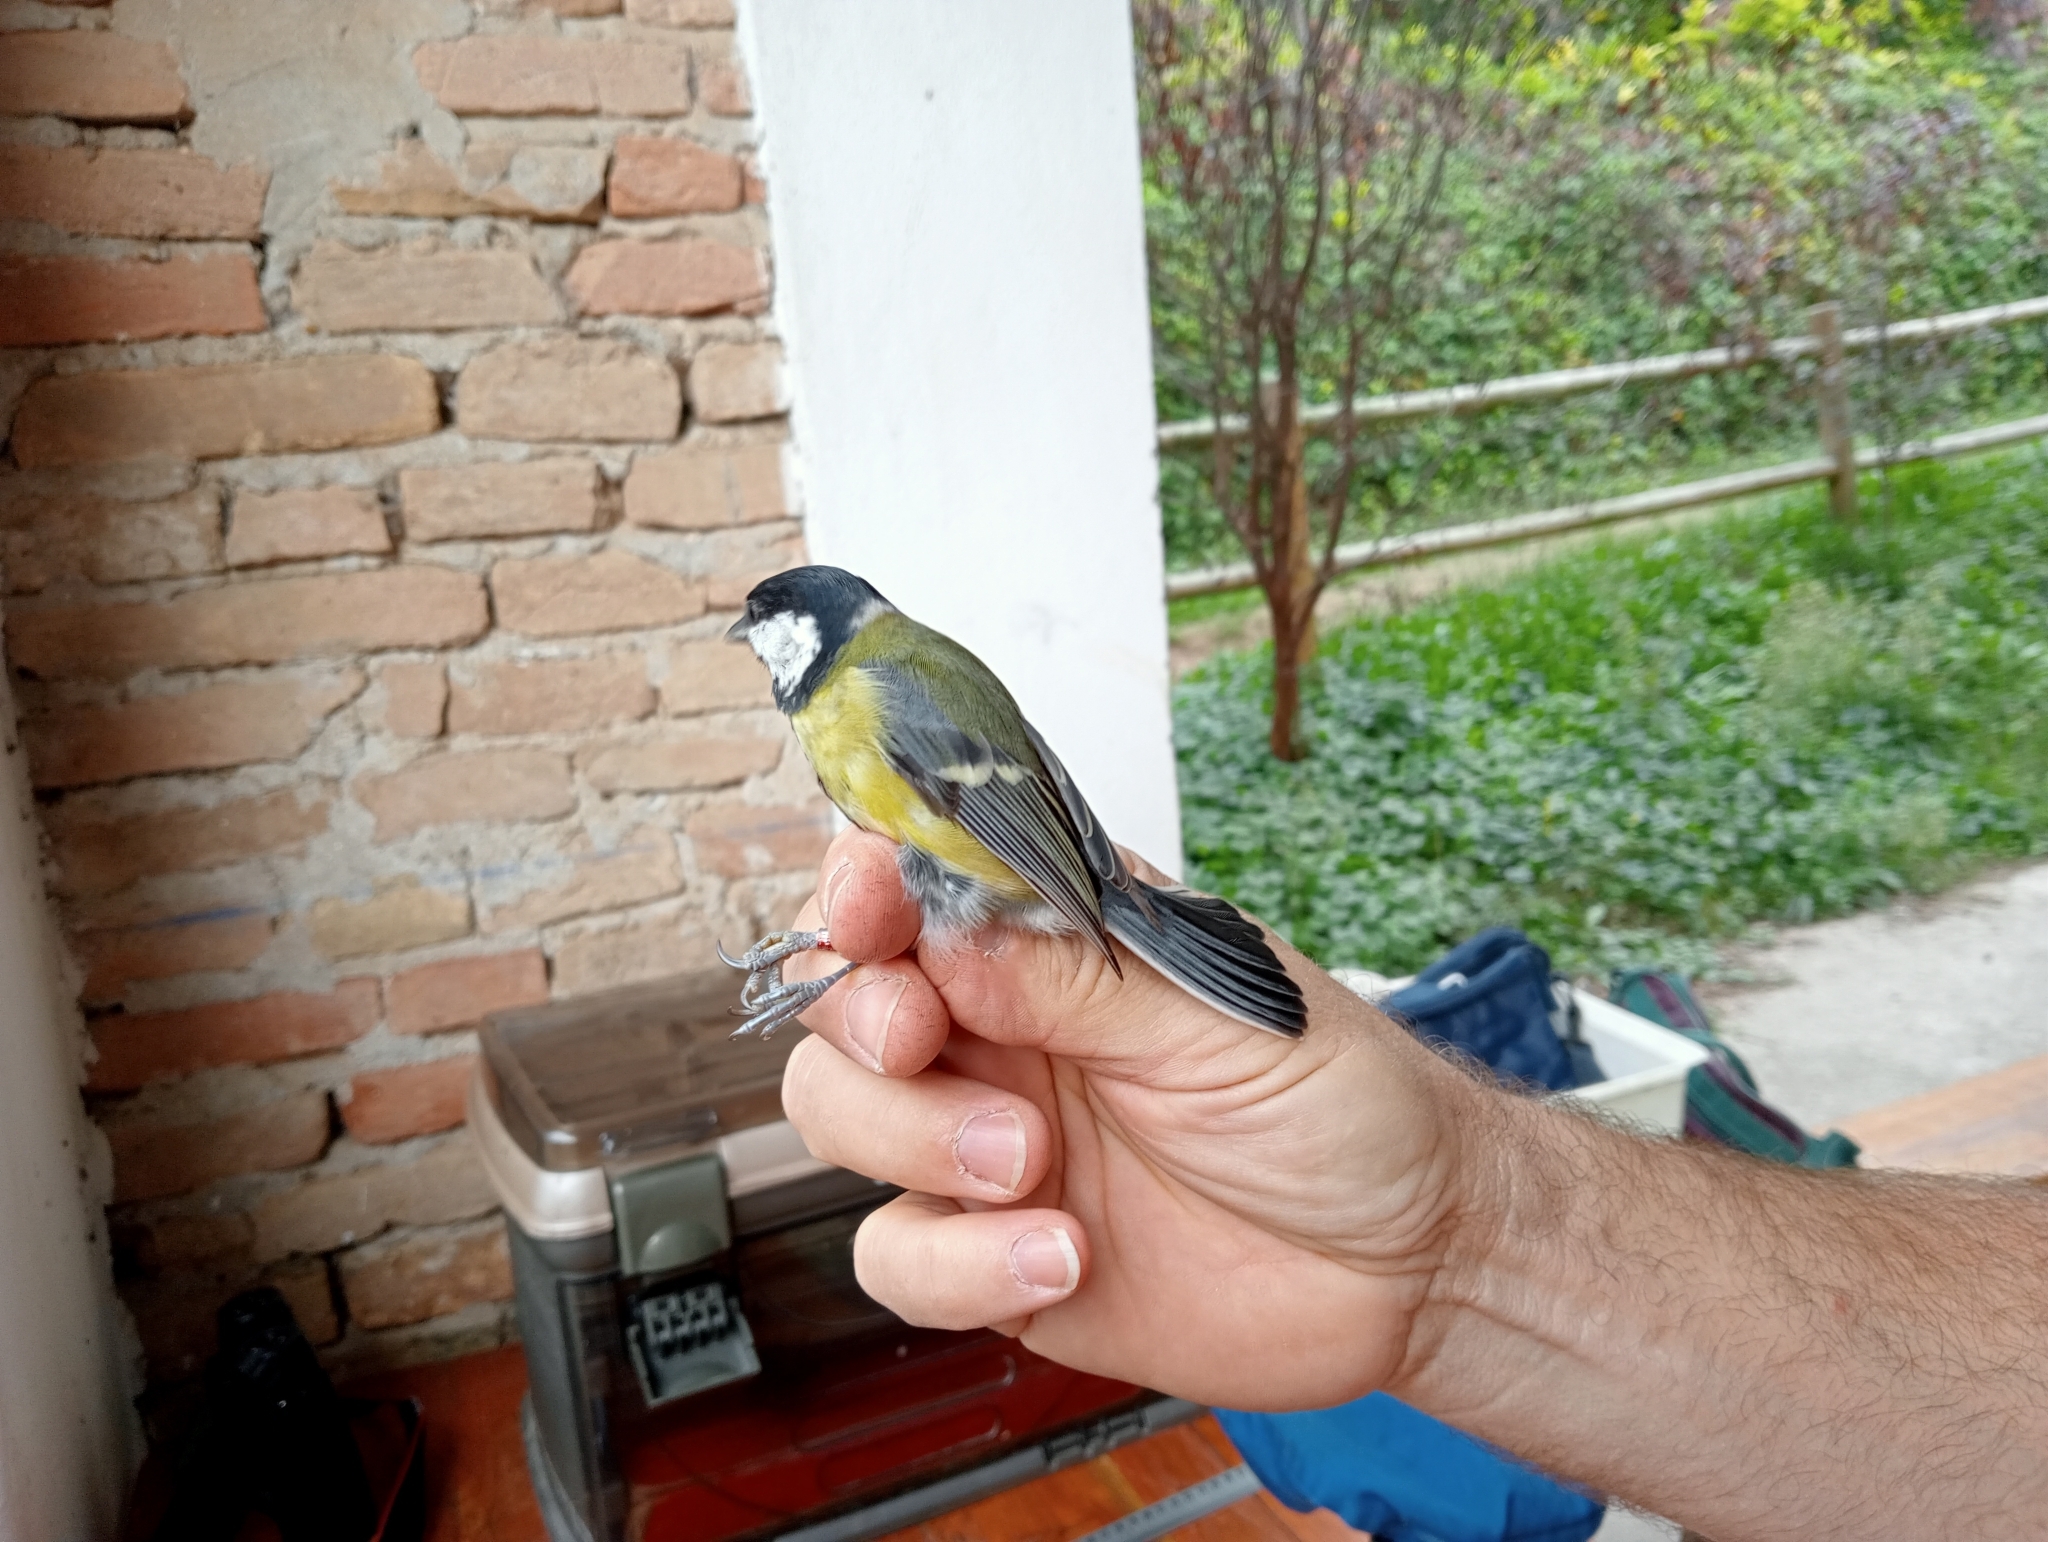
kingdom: Animalia
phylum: Chordata
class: Aves
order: Passeriformes
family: Paridae
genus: Parus
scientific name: Parus major
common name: Great tit
